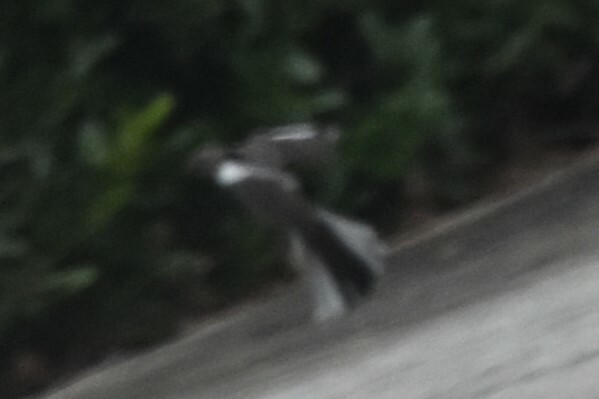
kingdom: Animalia
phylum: Chordata
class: Aves
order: Passeriformes
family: Mimidae
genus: Mimus
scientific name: Mimus polyglottos
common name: Northern mockingbird
